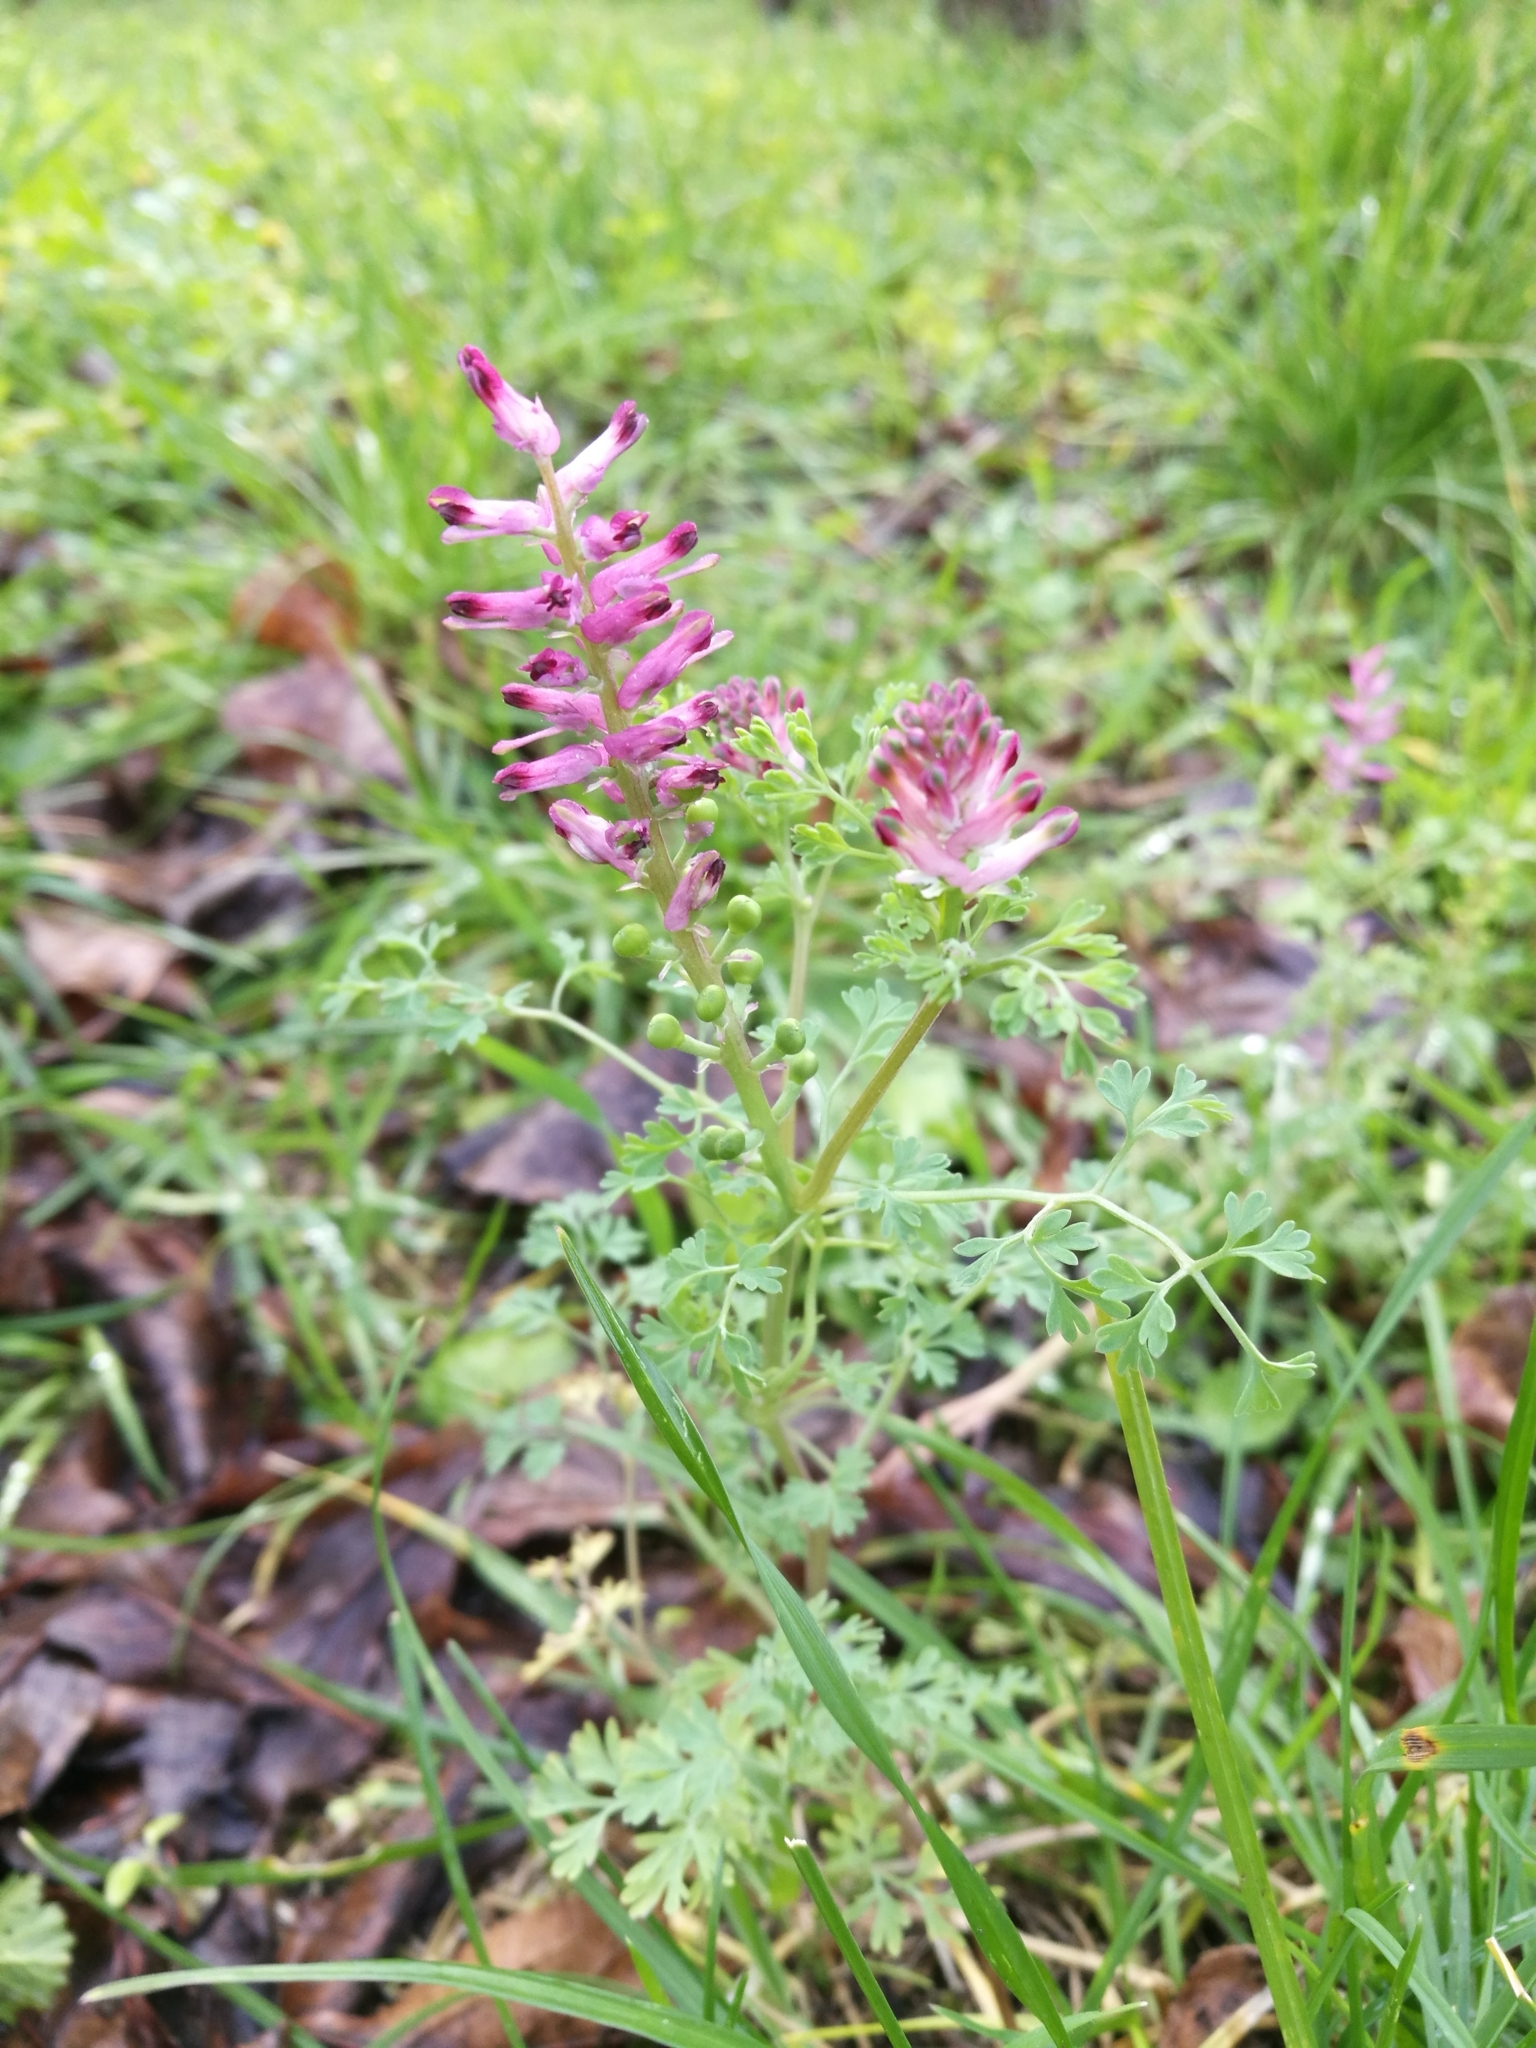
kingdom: Plantae
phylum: Tracheophyta
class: Magnoliopsida
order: Ranunculales
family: Papaveraceae
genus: Fumaria
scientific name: Fumaria officinalis
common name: Common fumitory
